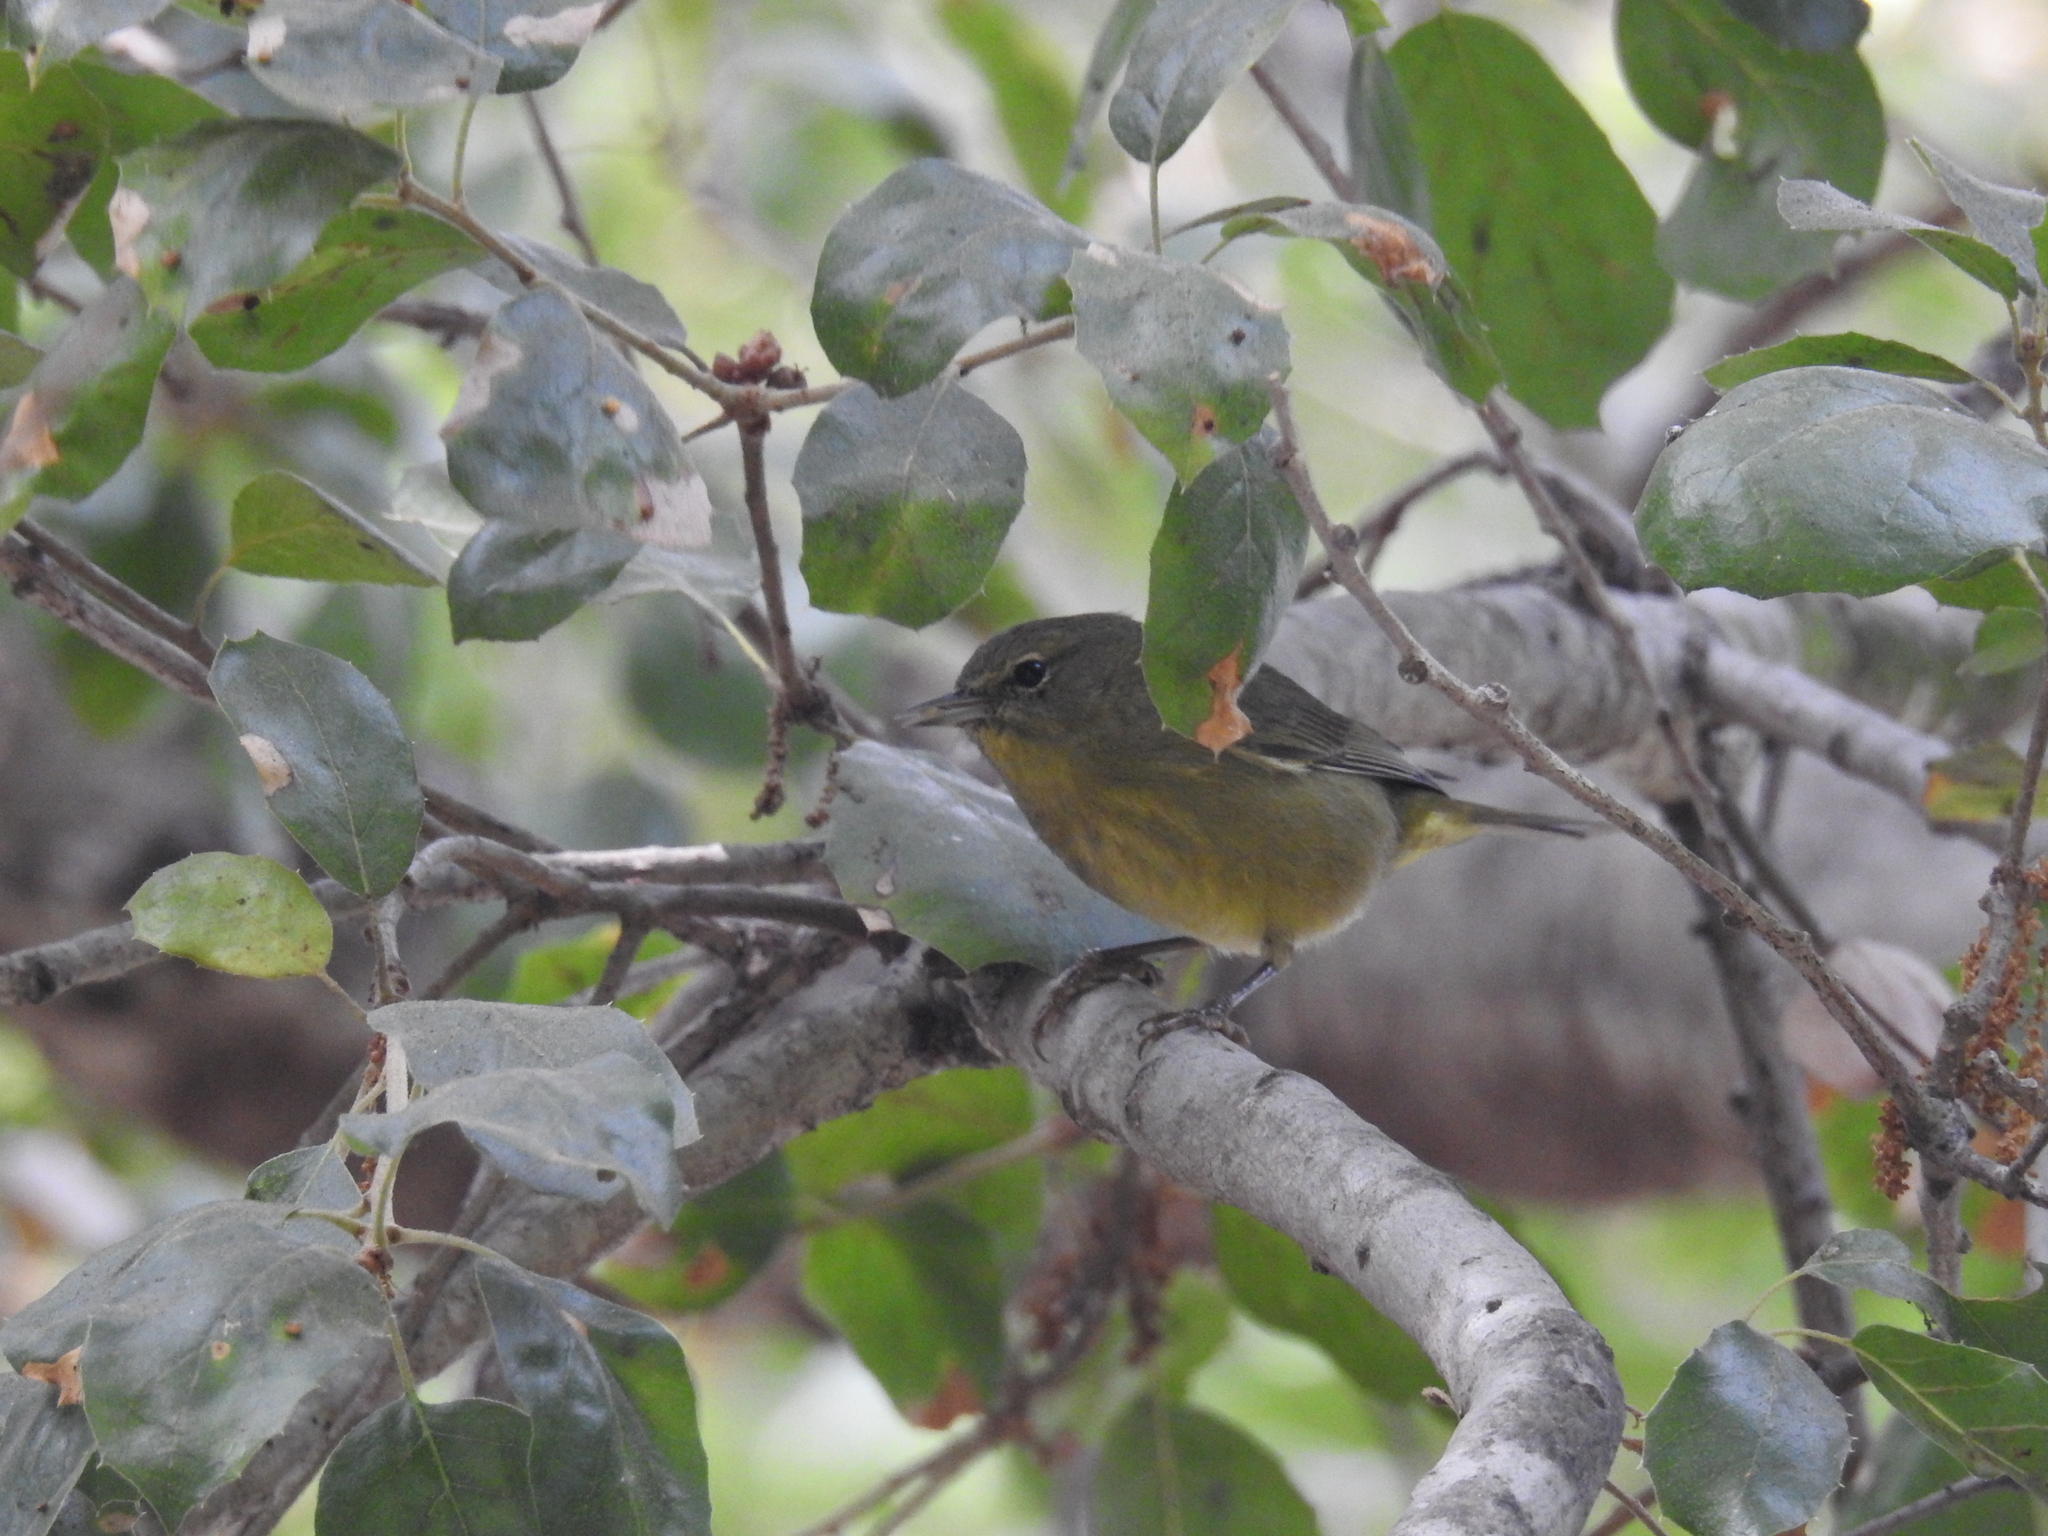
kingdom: Animalia
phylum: Chordata
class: Aves
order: Passeriformes
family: Parulidae
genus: Leiothlypis
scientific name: Leiothlypis celata
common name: Orange-crowned warbler
